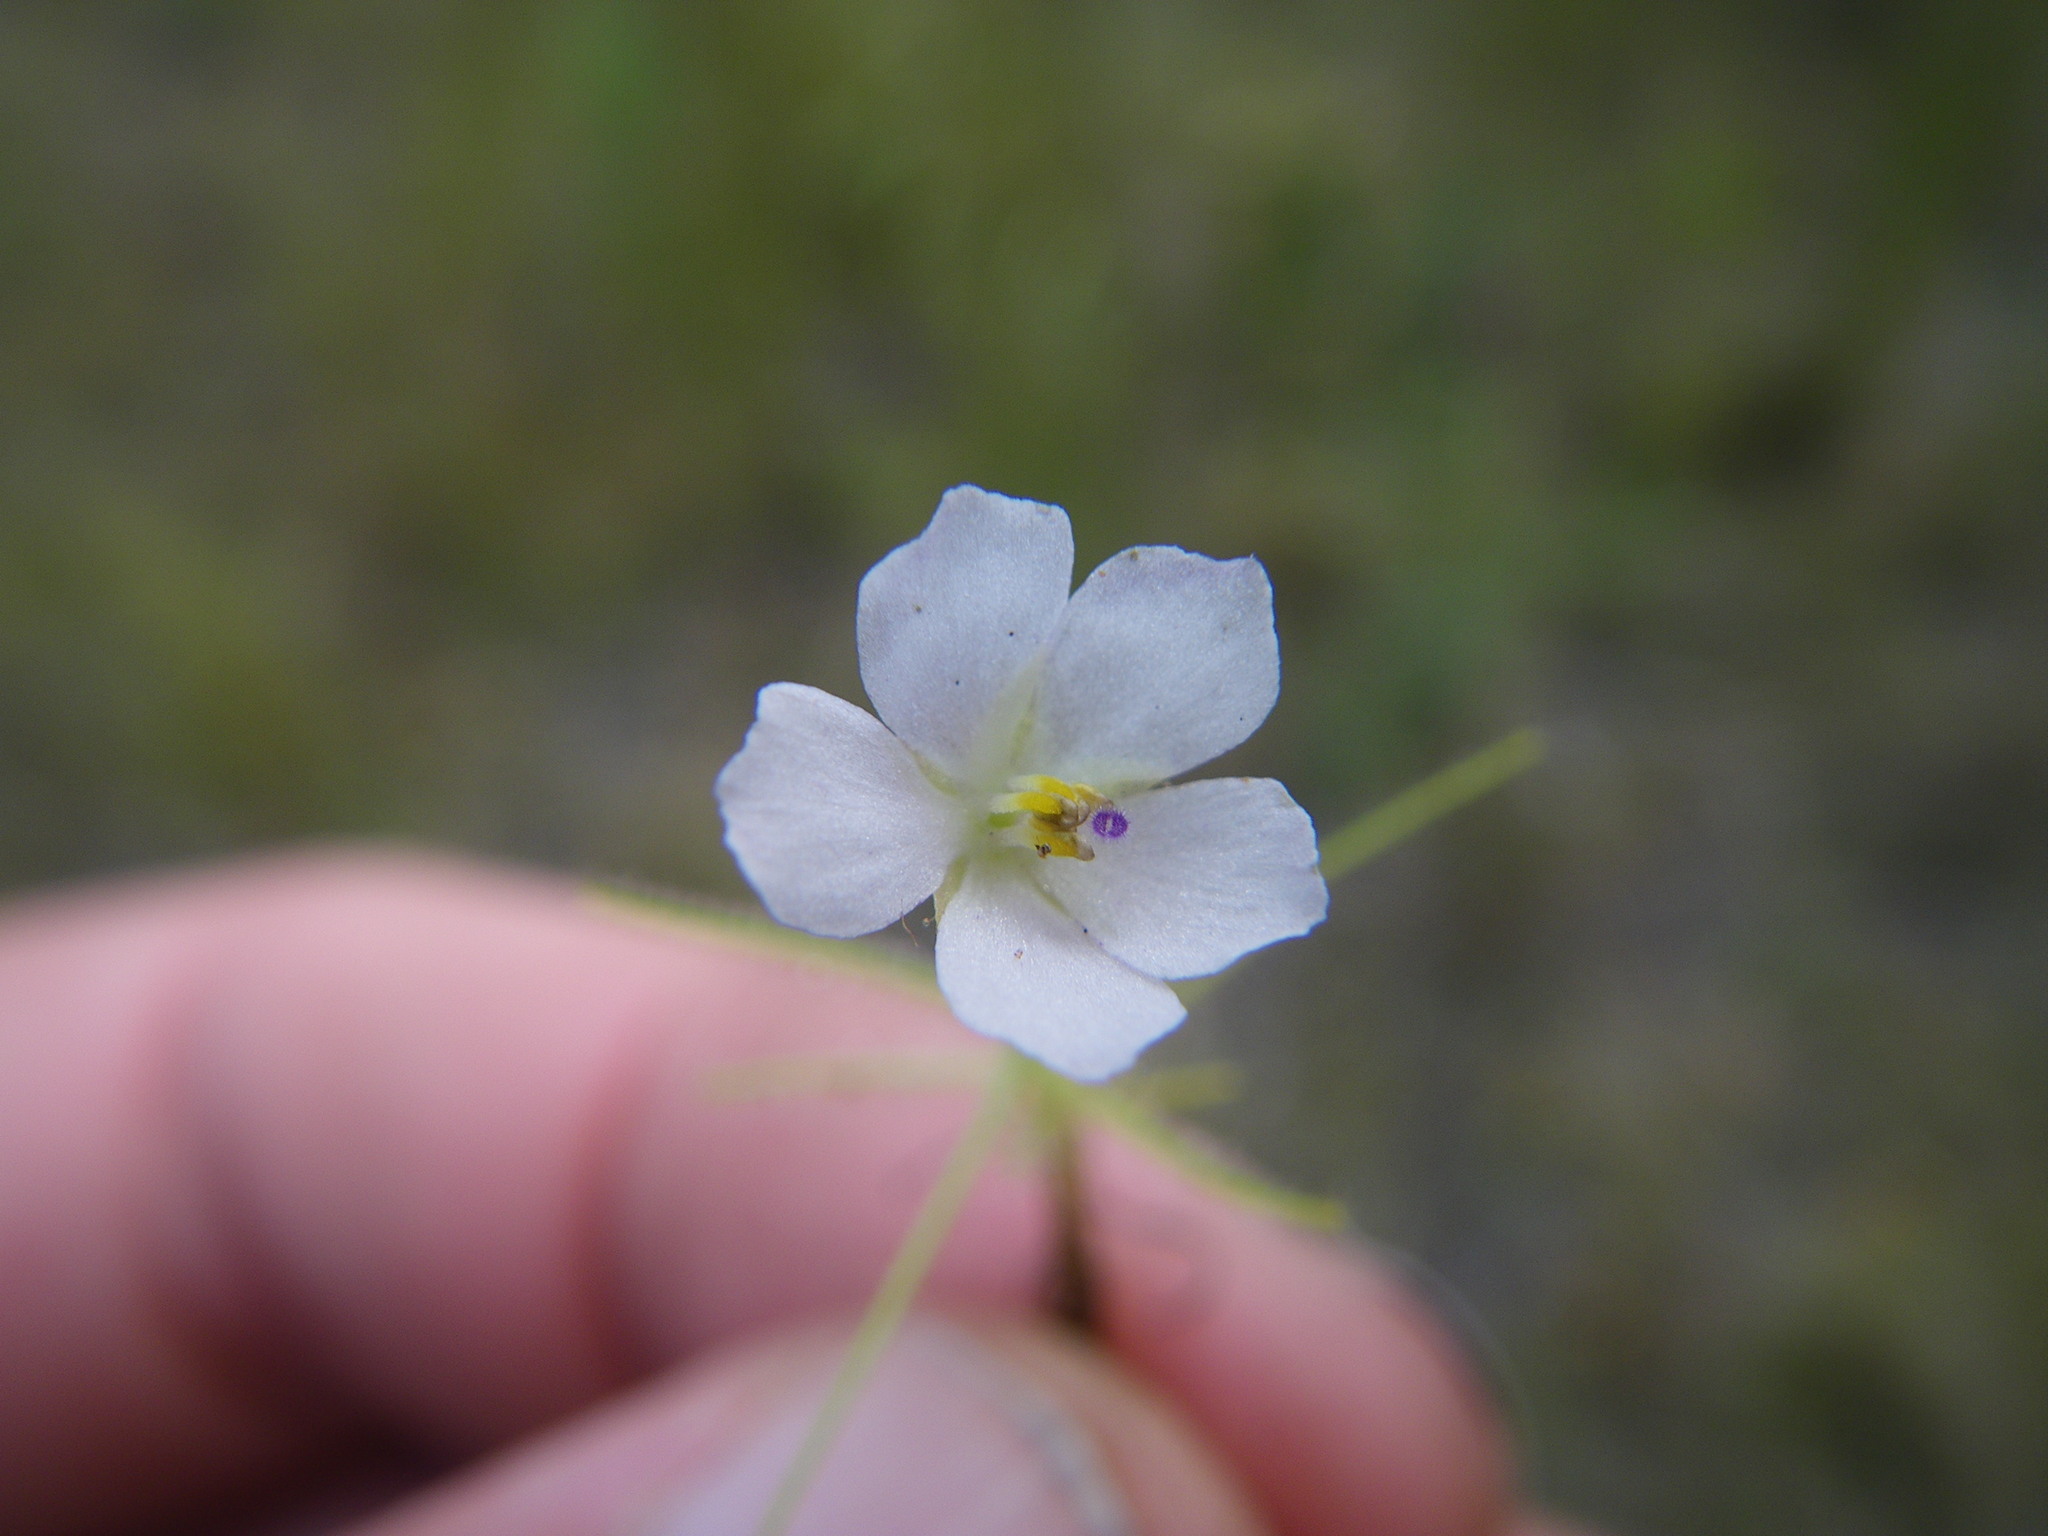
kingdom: Plantae
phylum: Tracheophyta
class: Magnoliopsida
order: Lamiales
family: Byblidaceae
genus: Byblis
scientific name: Byblis liniflora
